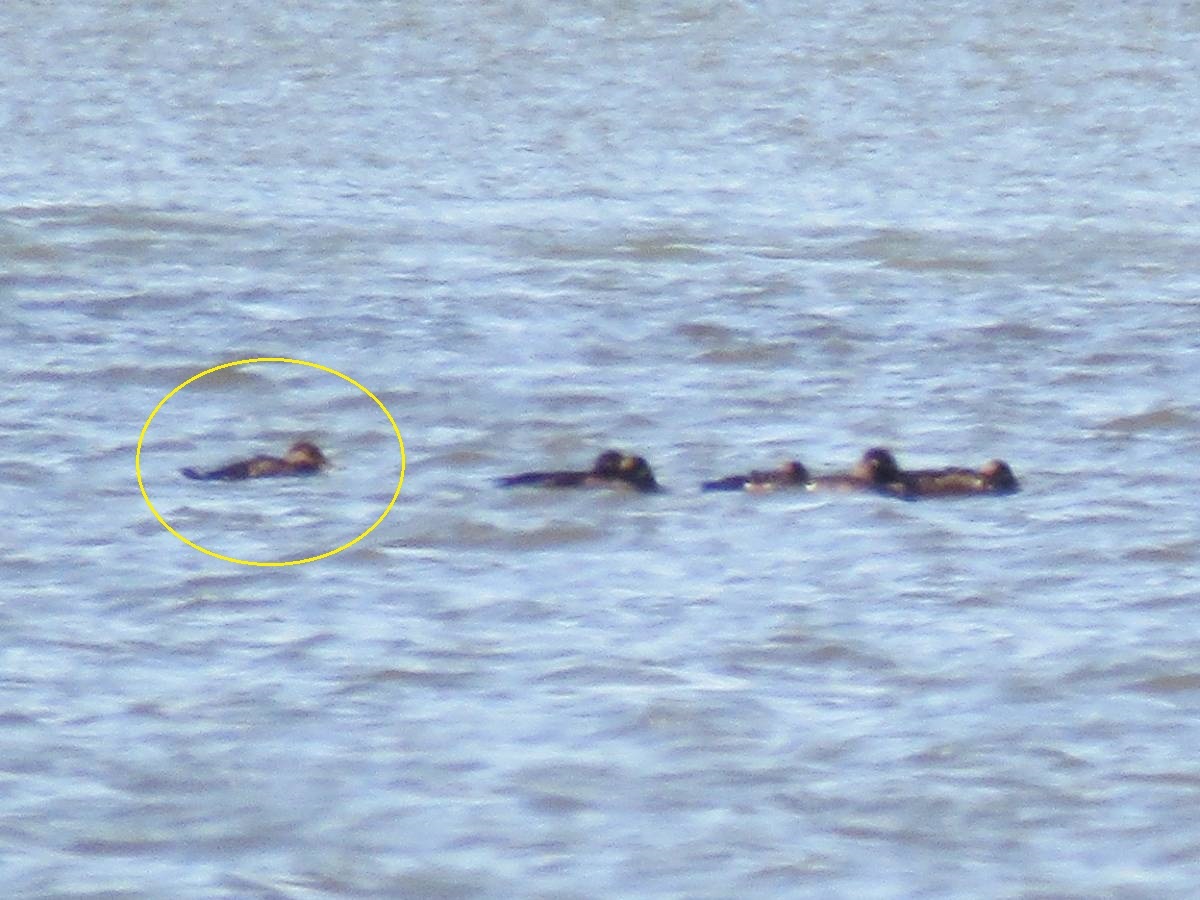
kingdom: Animalia
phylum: Chordata
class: Aves
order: Anseriformes
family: Anatidae
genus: Melanitta
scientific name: Melanitta nigra
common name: Common scoter
